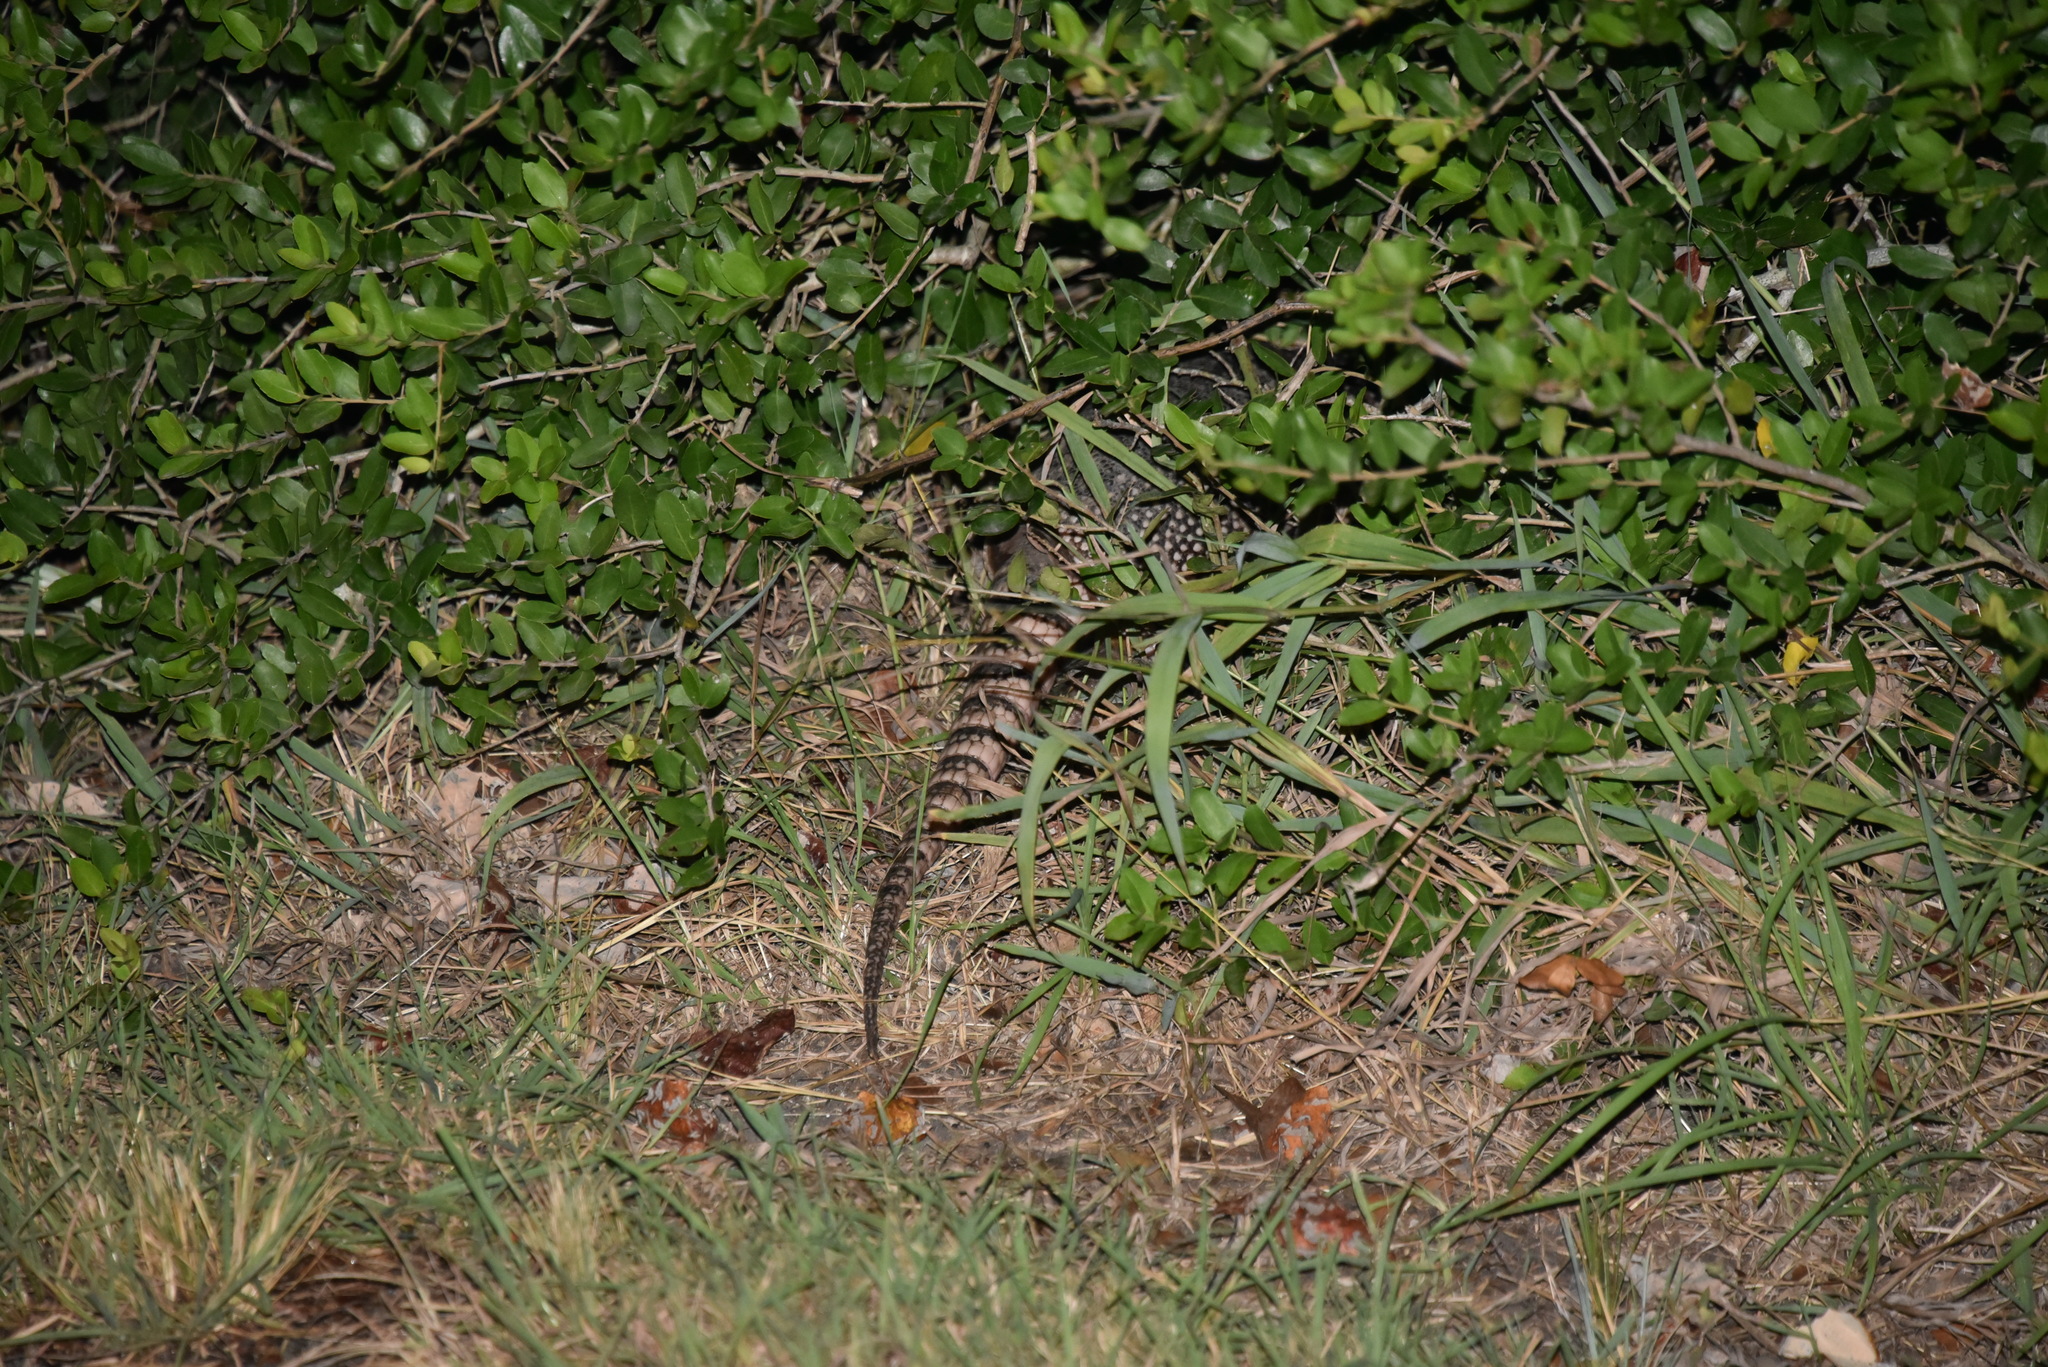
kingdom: Animalia
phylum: Chordata
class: Mammalia
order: Cingulata
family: Dasypodidae
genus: Dasypus
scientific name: Dasypus novemcinctus
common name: Nine-banded armadillo
